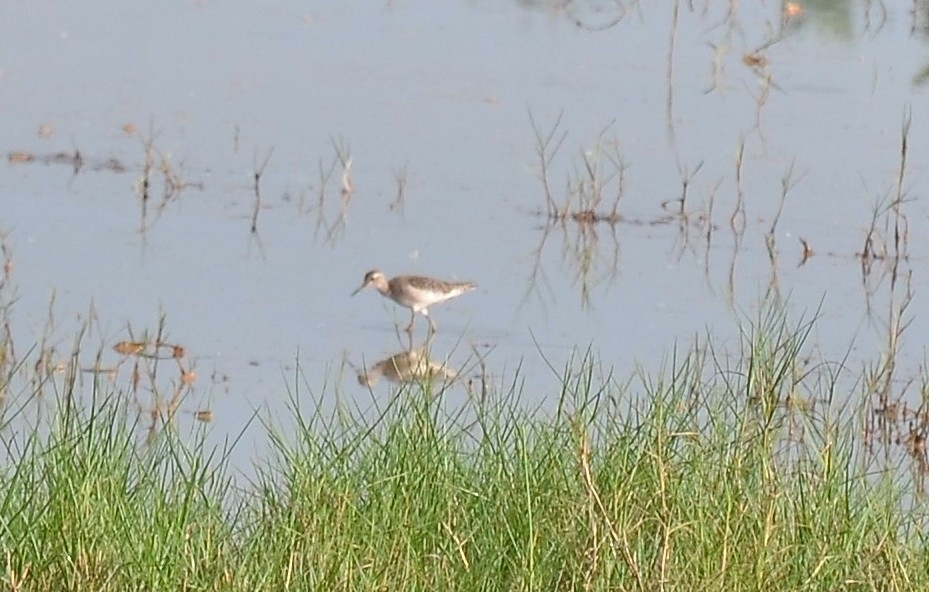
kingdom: Animalia
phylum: Chordata
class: Aves
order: Charadriiformes
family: Scolopacidae
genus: Tringa
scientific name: Tringa glareola
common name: Wood sandpiper
